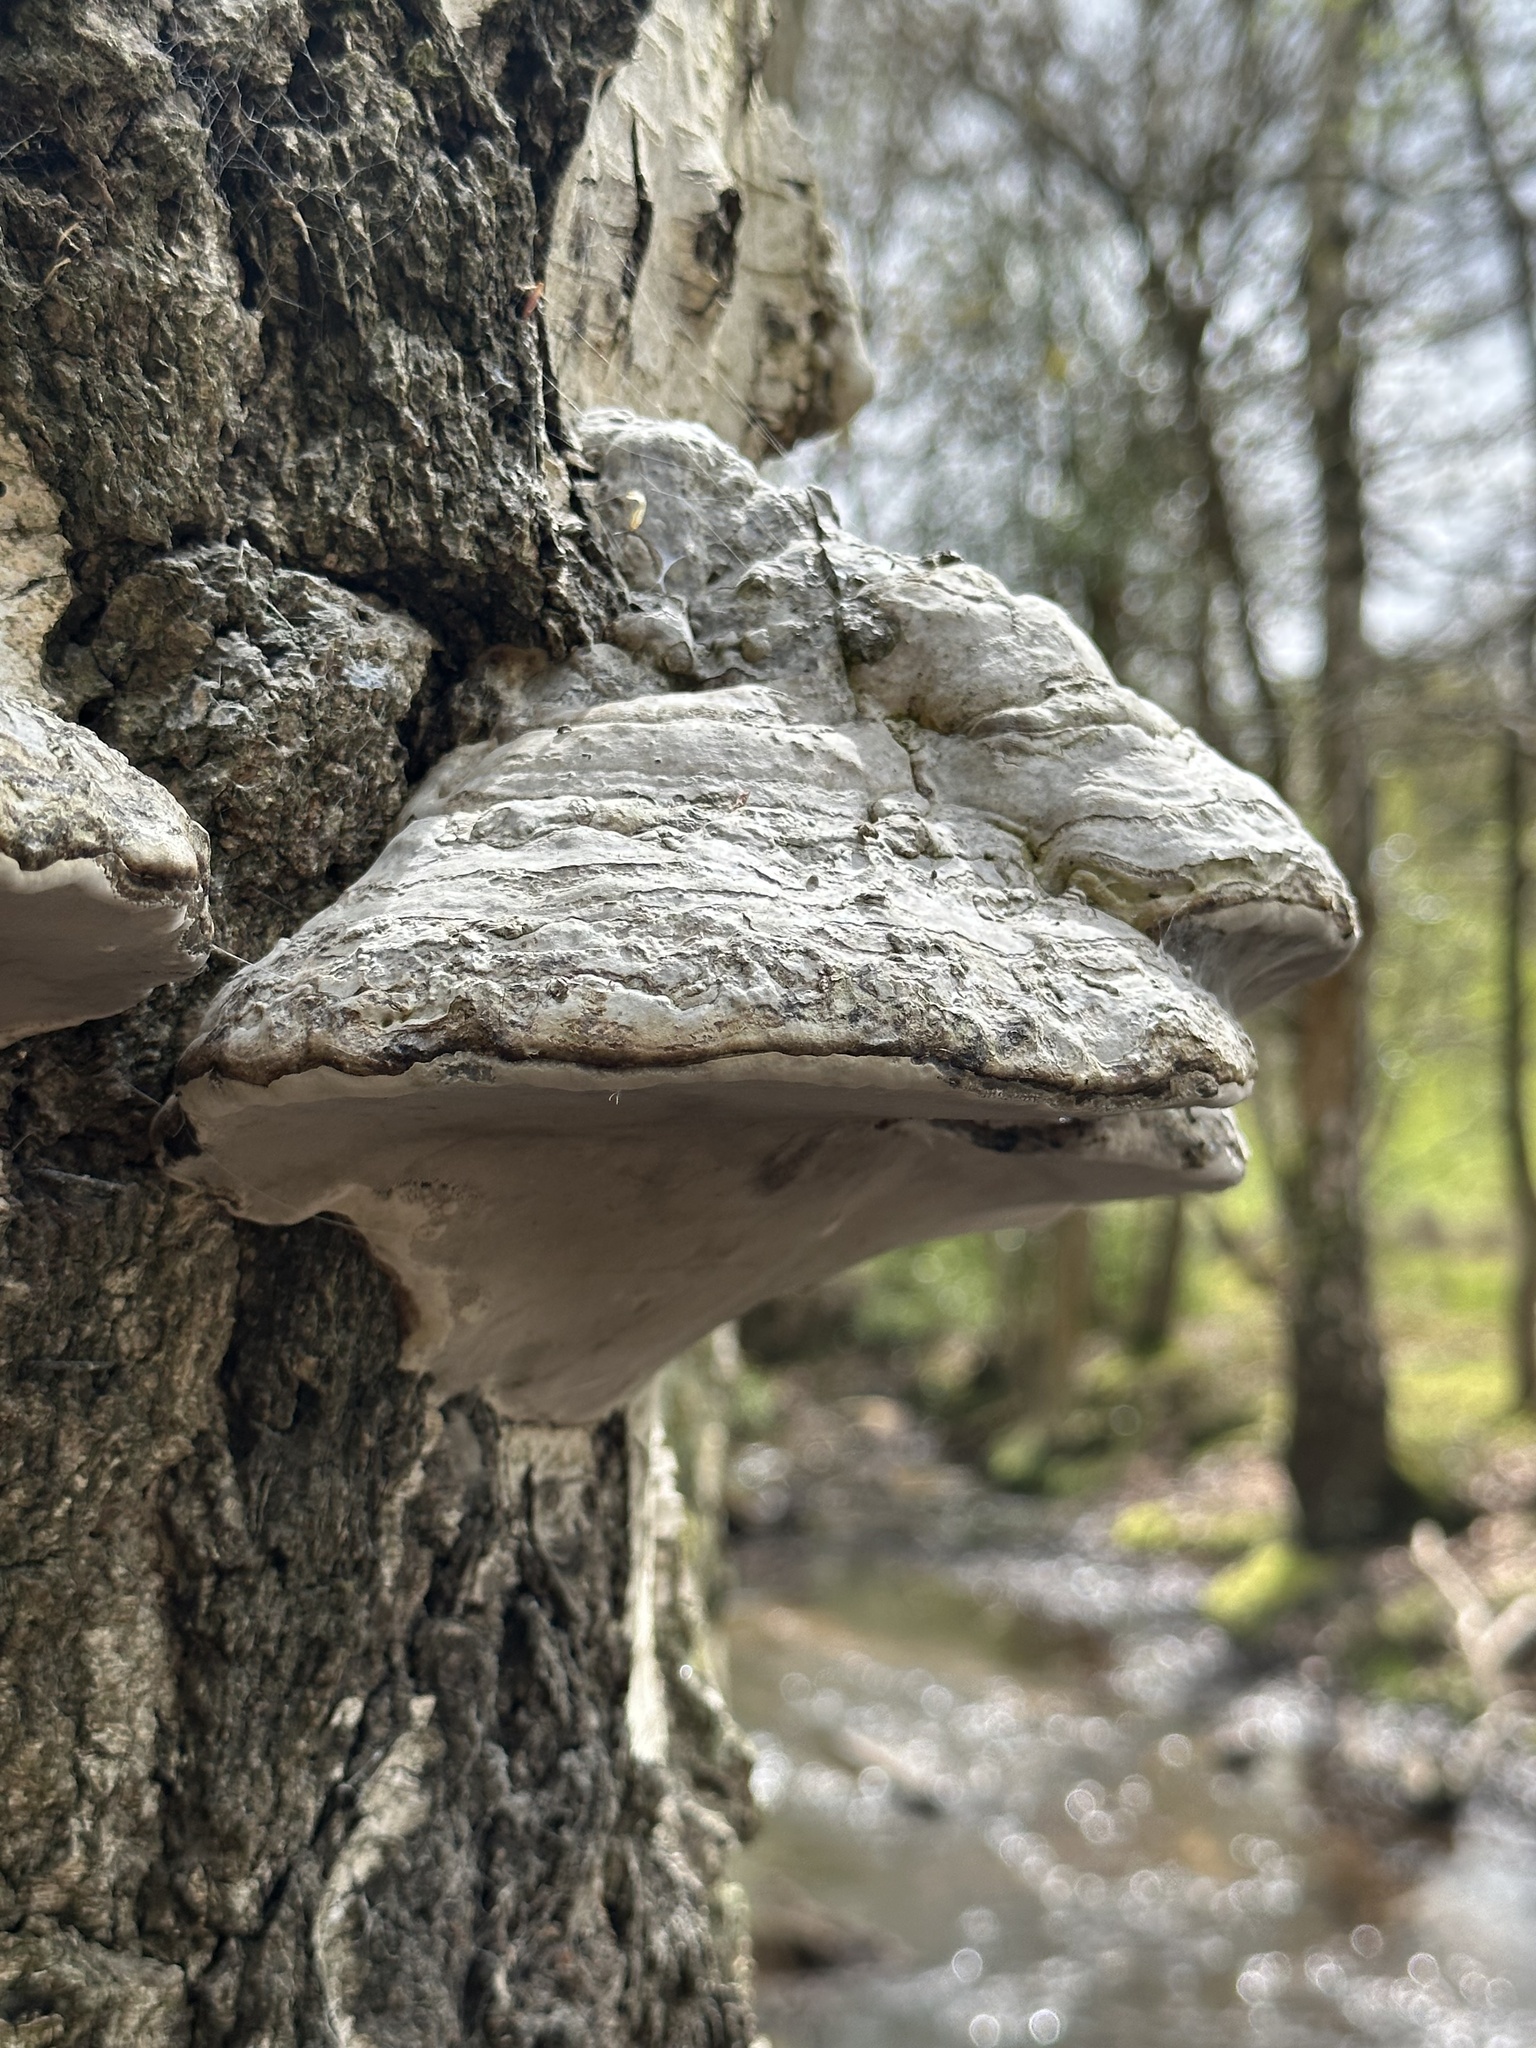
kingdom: Fungi
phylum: Basidiomycota
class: Agaricomycetes
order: Polyporales
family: Polyporaceae
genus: Fomes
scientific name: Fomes fomentarius
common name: Hoof fungus
